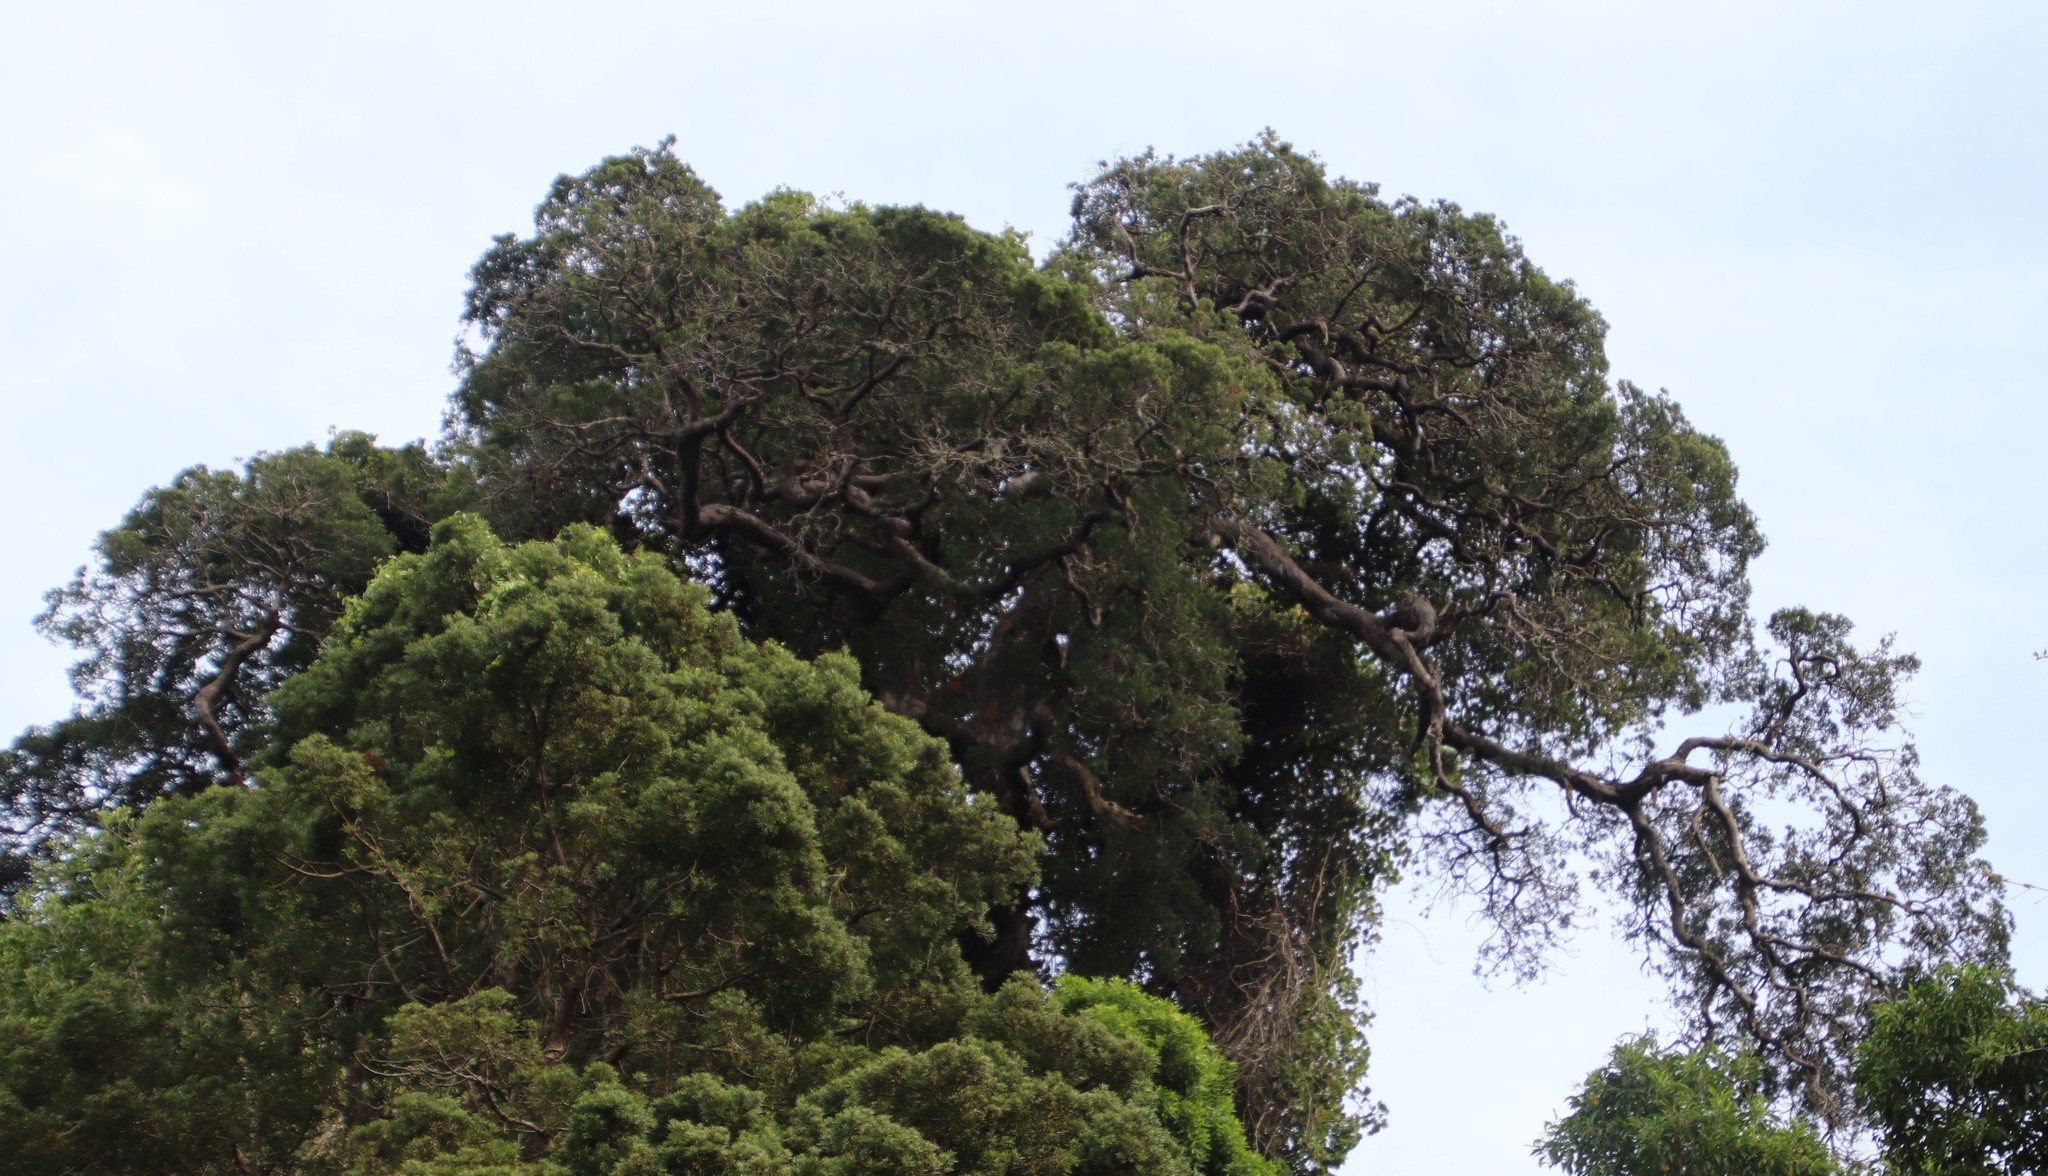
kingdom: Plantae
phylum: Tracheophyta
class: Pinopsida
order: Pinales
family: Podocarpaceae
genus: Afrocarpus
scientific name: Afrocarpus falcatus
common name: Bastard yellowwood
